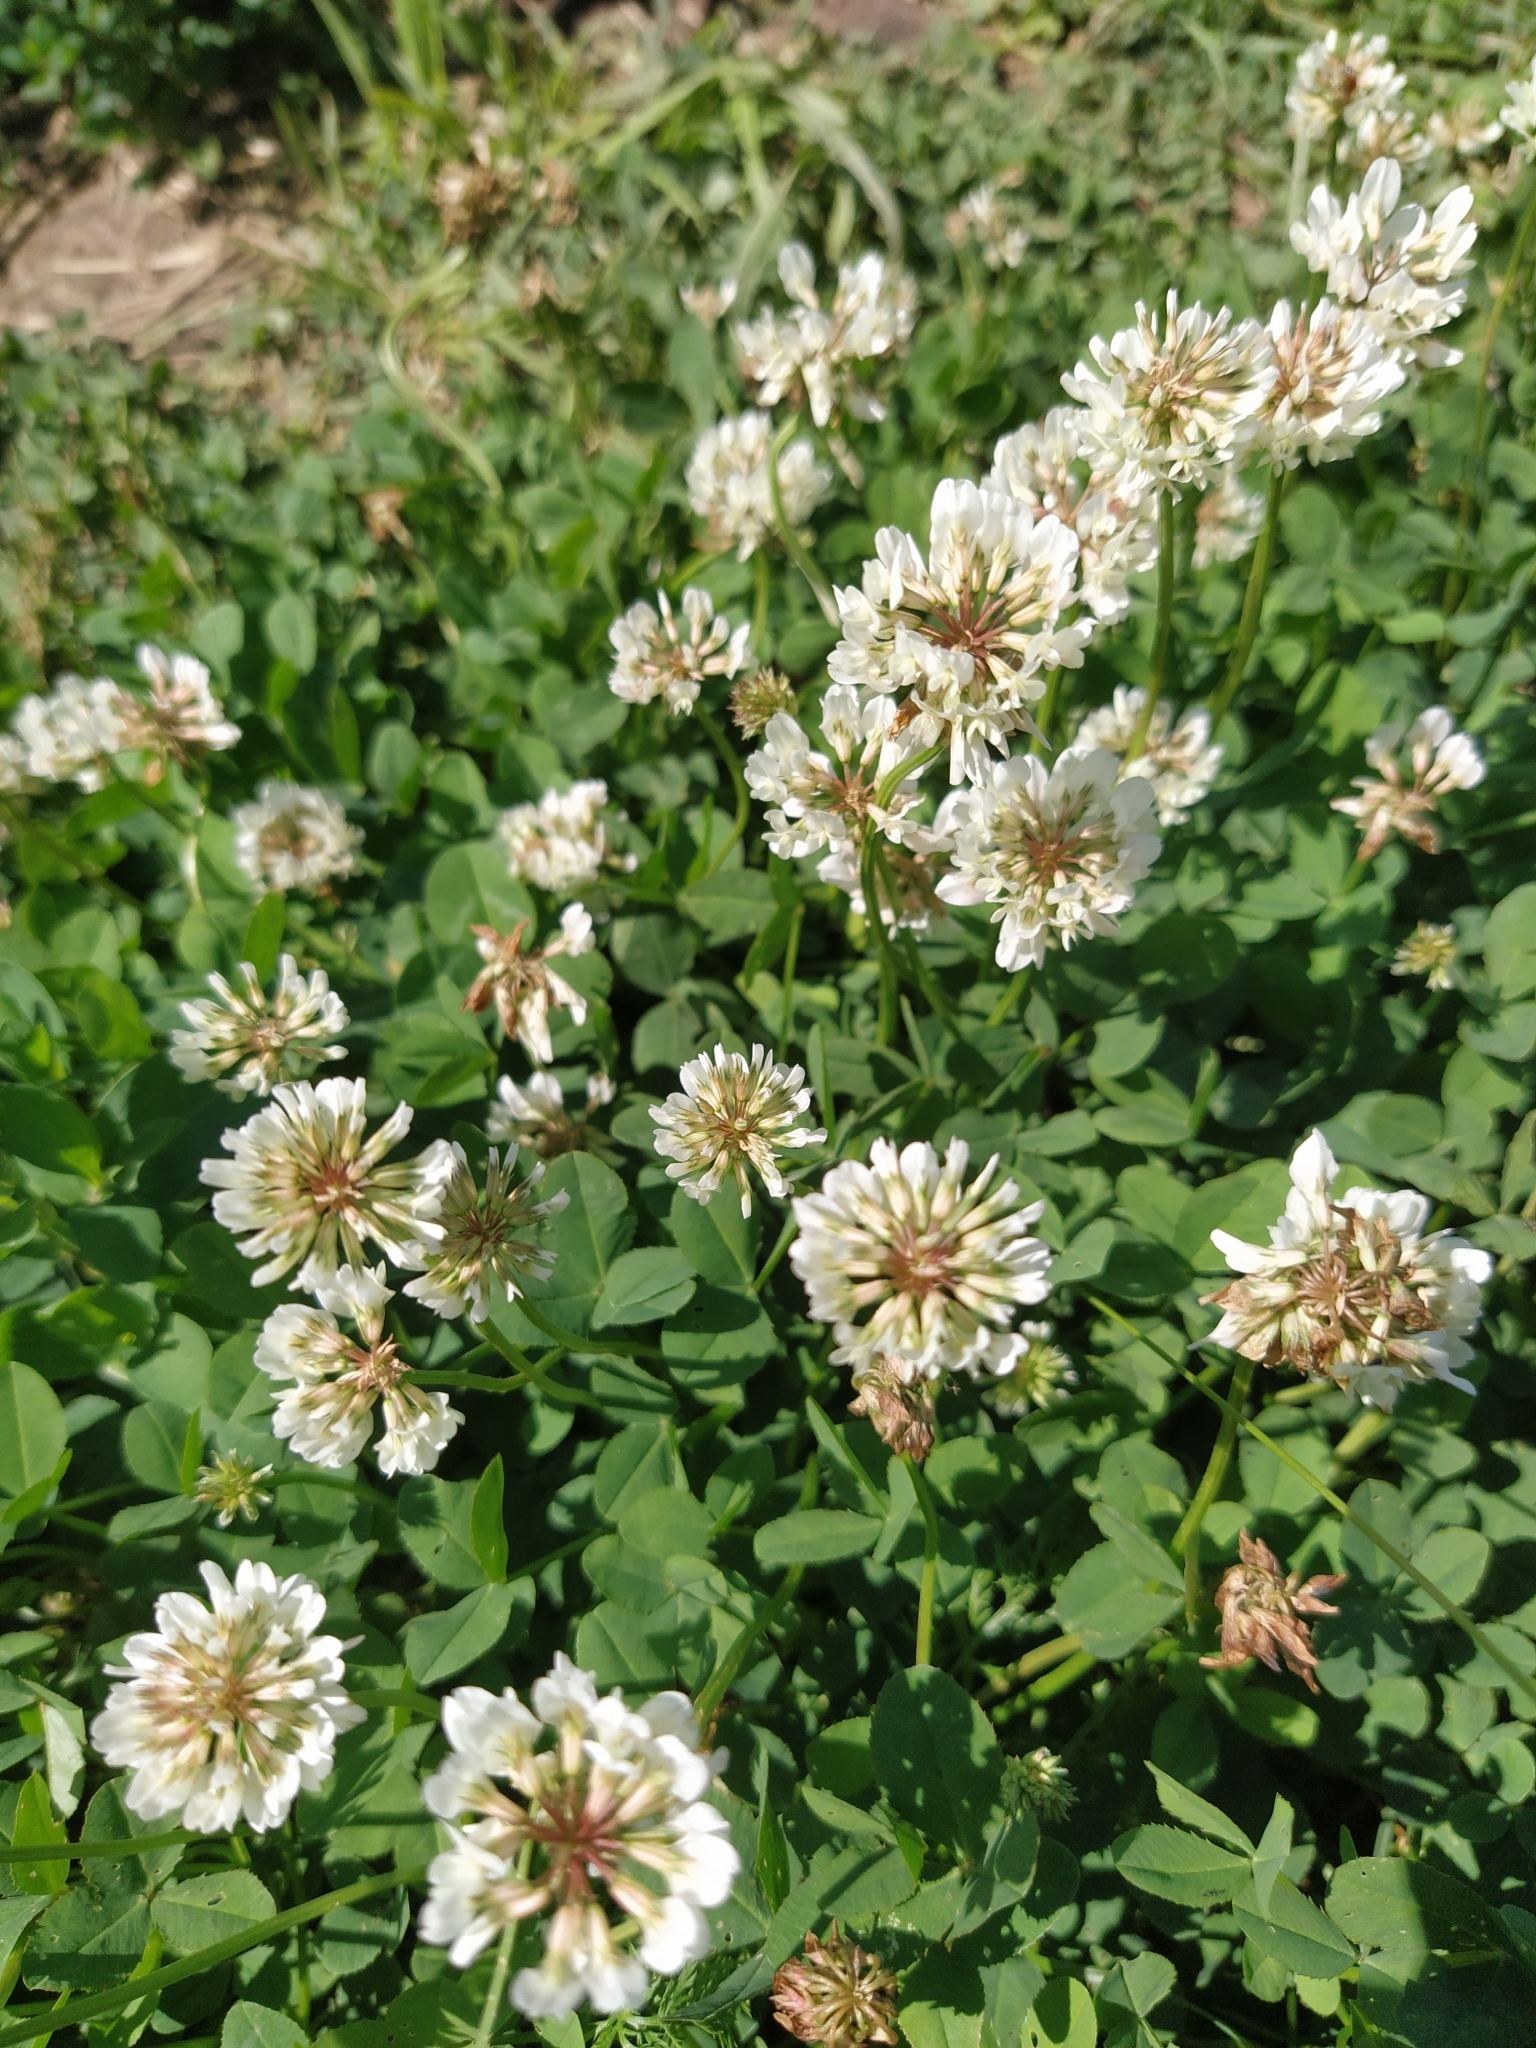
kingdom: Plantae
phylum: Tracheophyta
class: Magnoliopsida
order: Fabales
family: Fabaceae
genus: Trifolium
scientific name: Trifolium repens
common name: White clover
